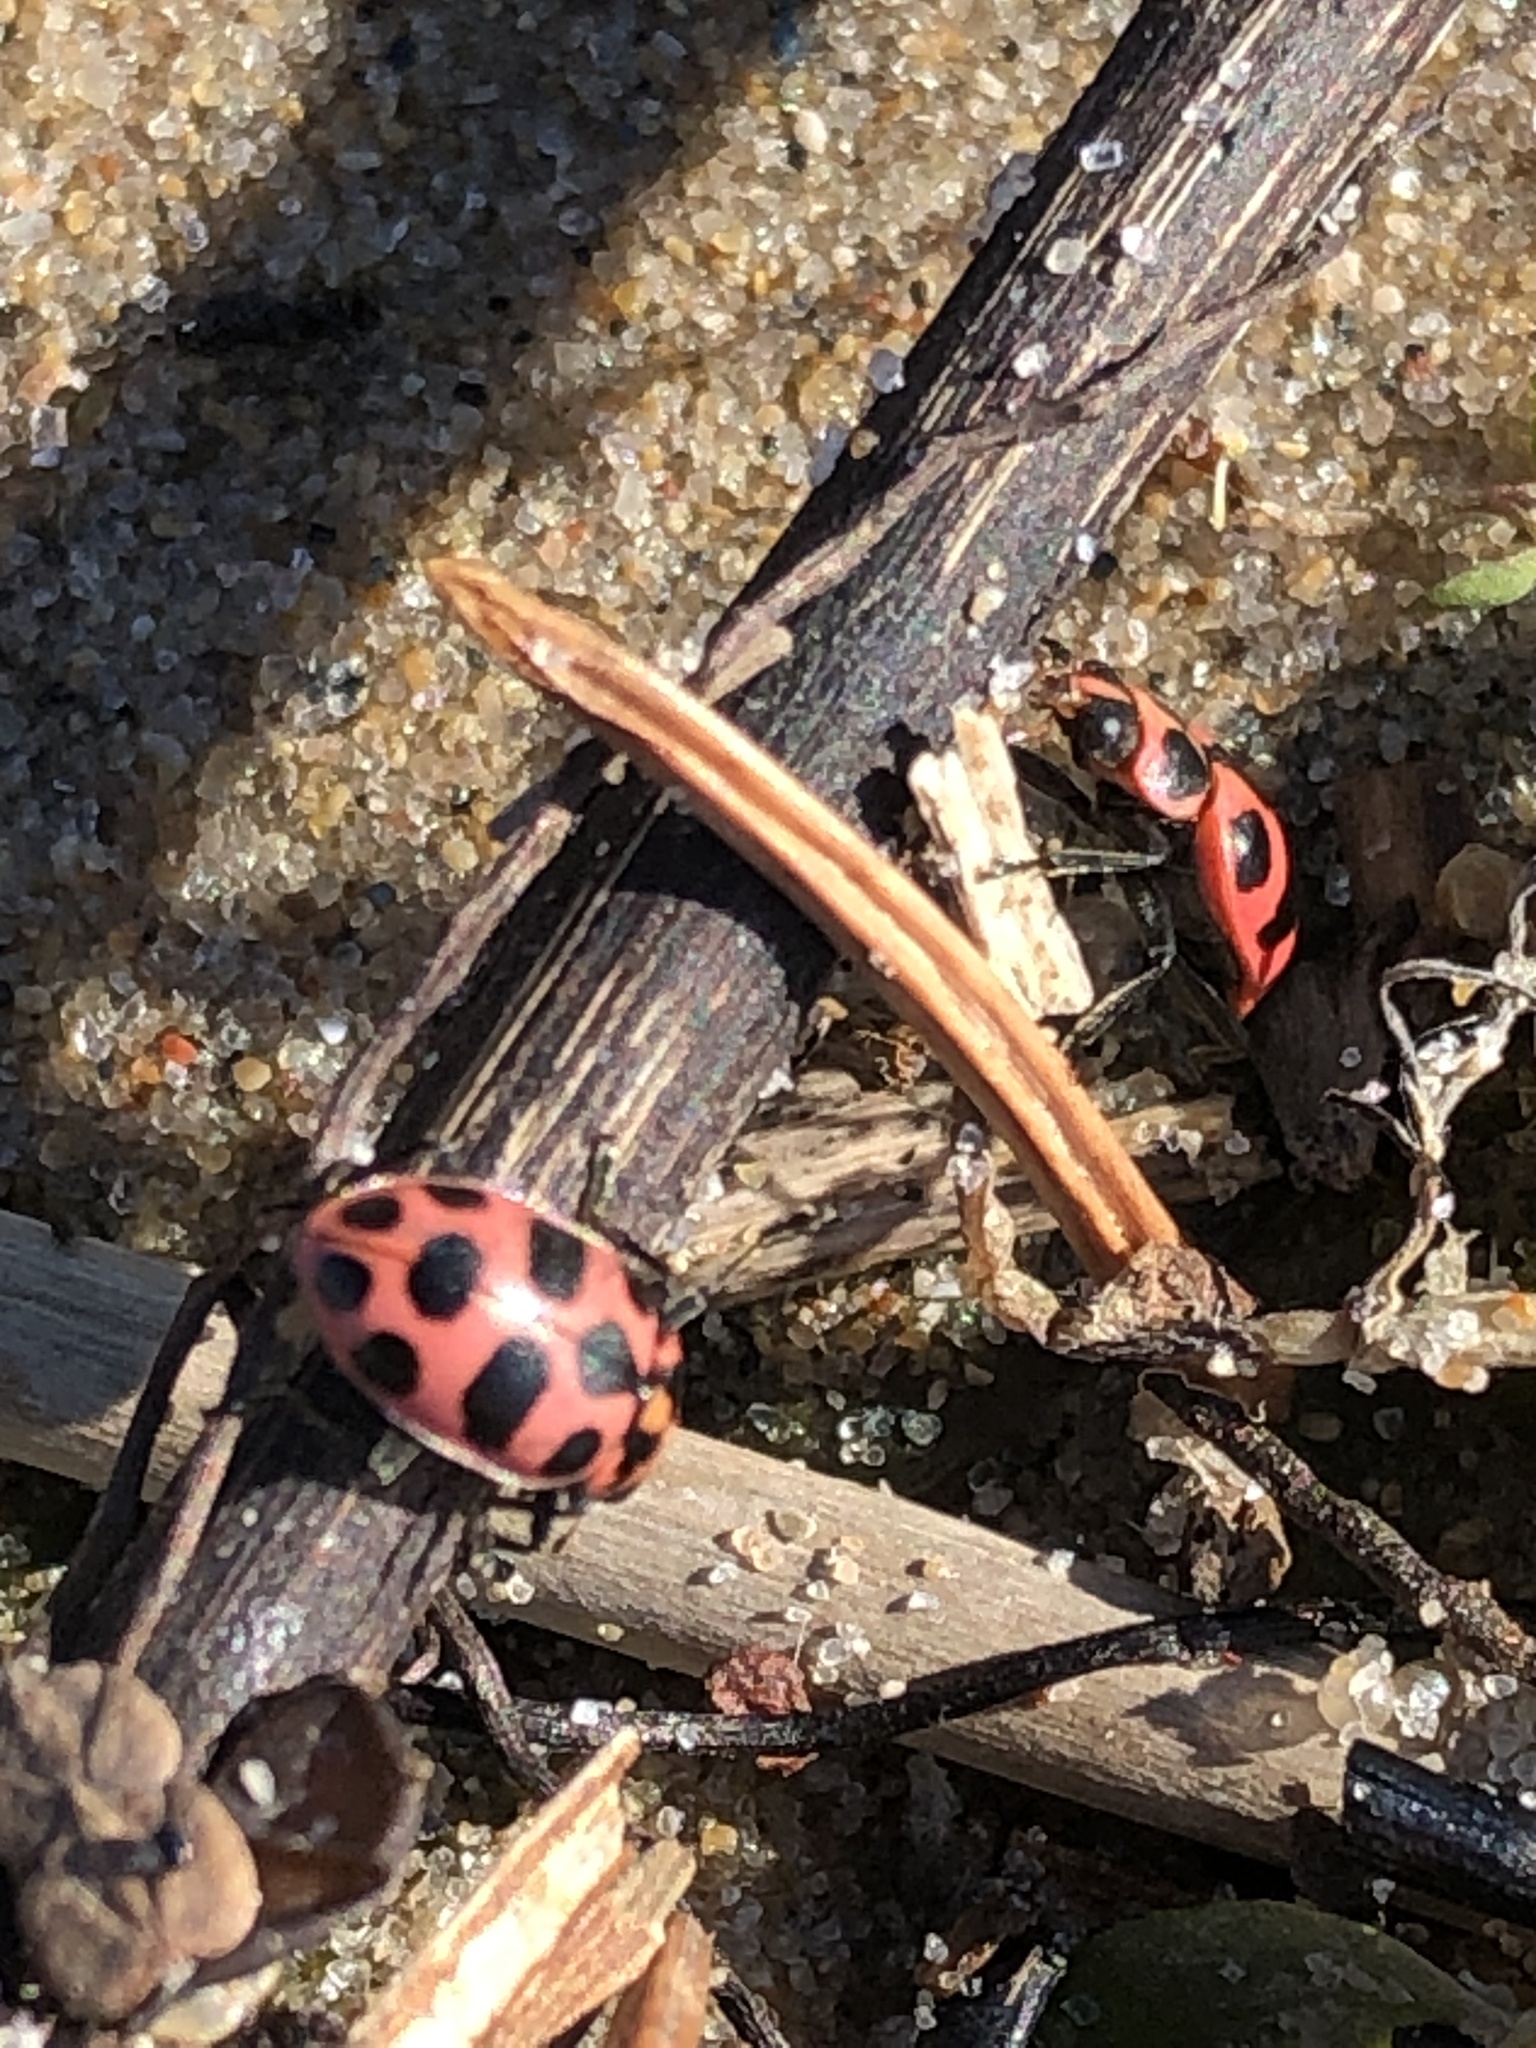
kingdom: Animalia
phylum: Arthropoda
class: Insecta
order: Coleoptera
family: Coccinellidae
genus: Coleomegilla
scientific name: Coleomegilla maculata
